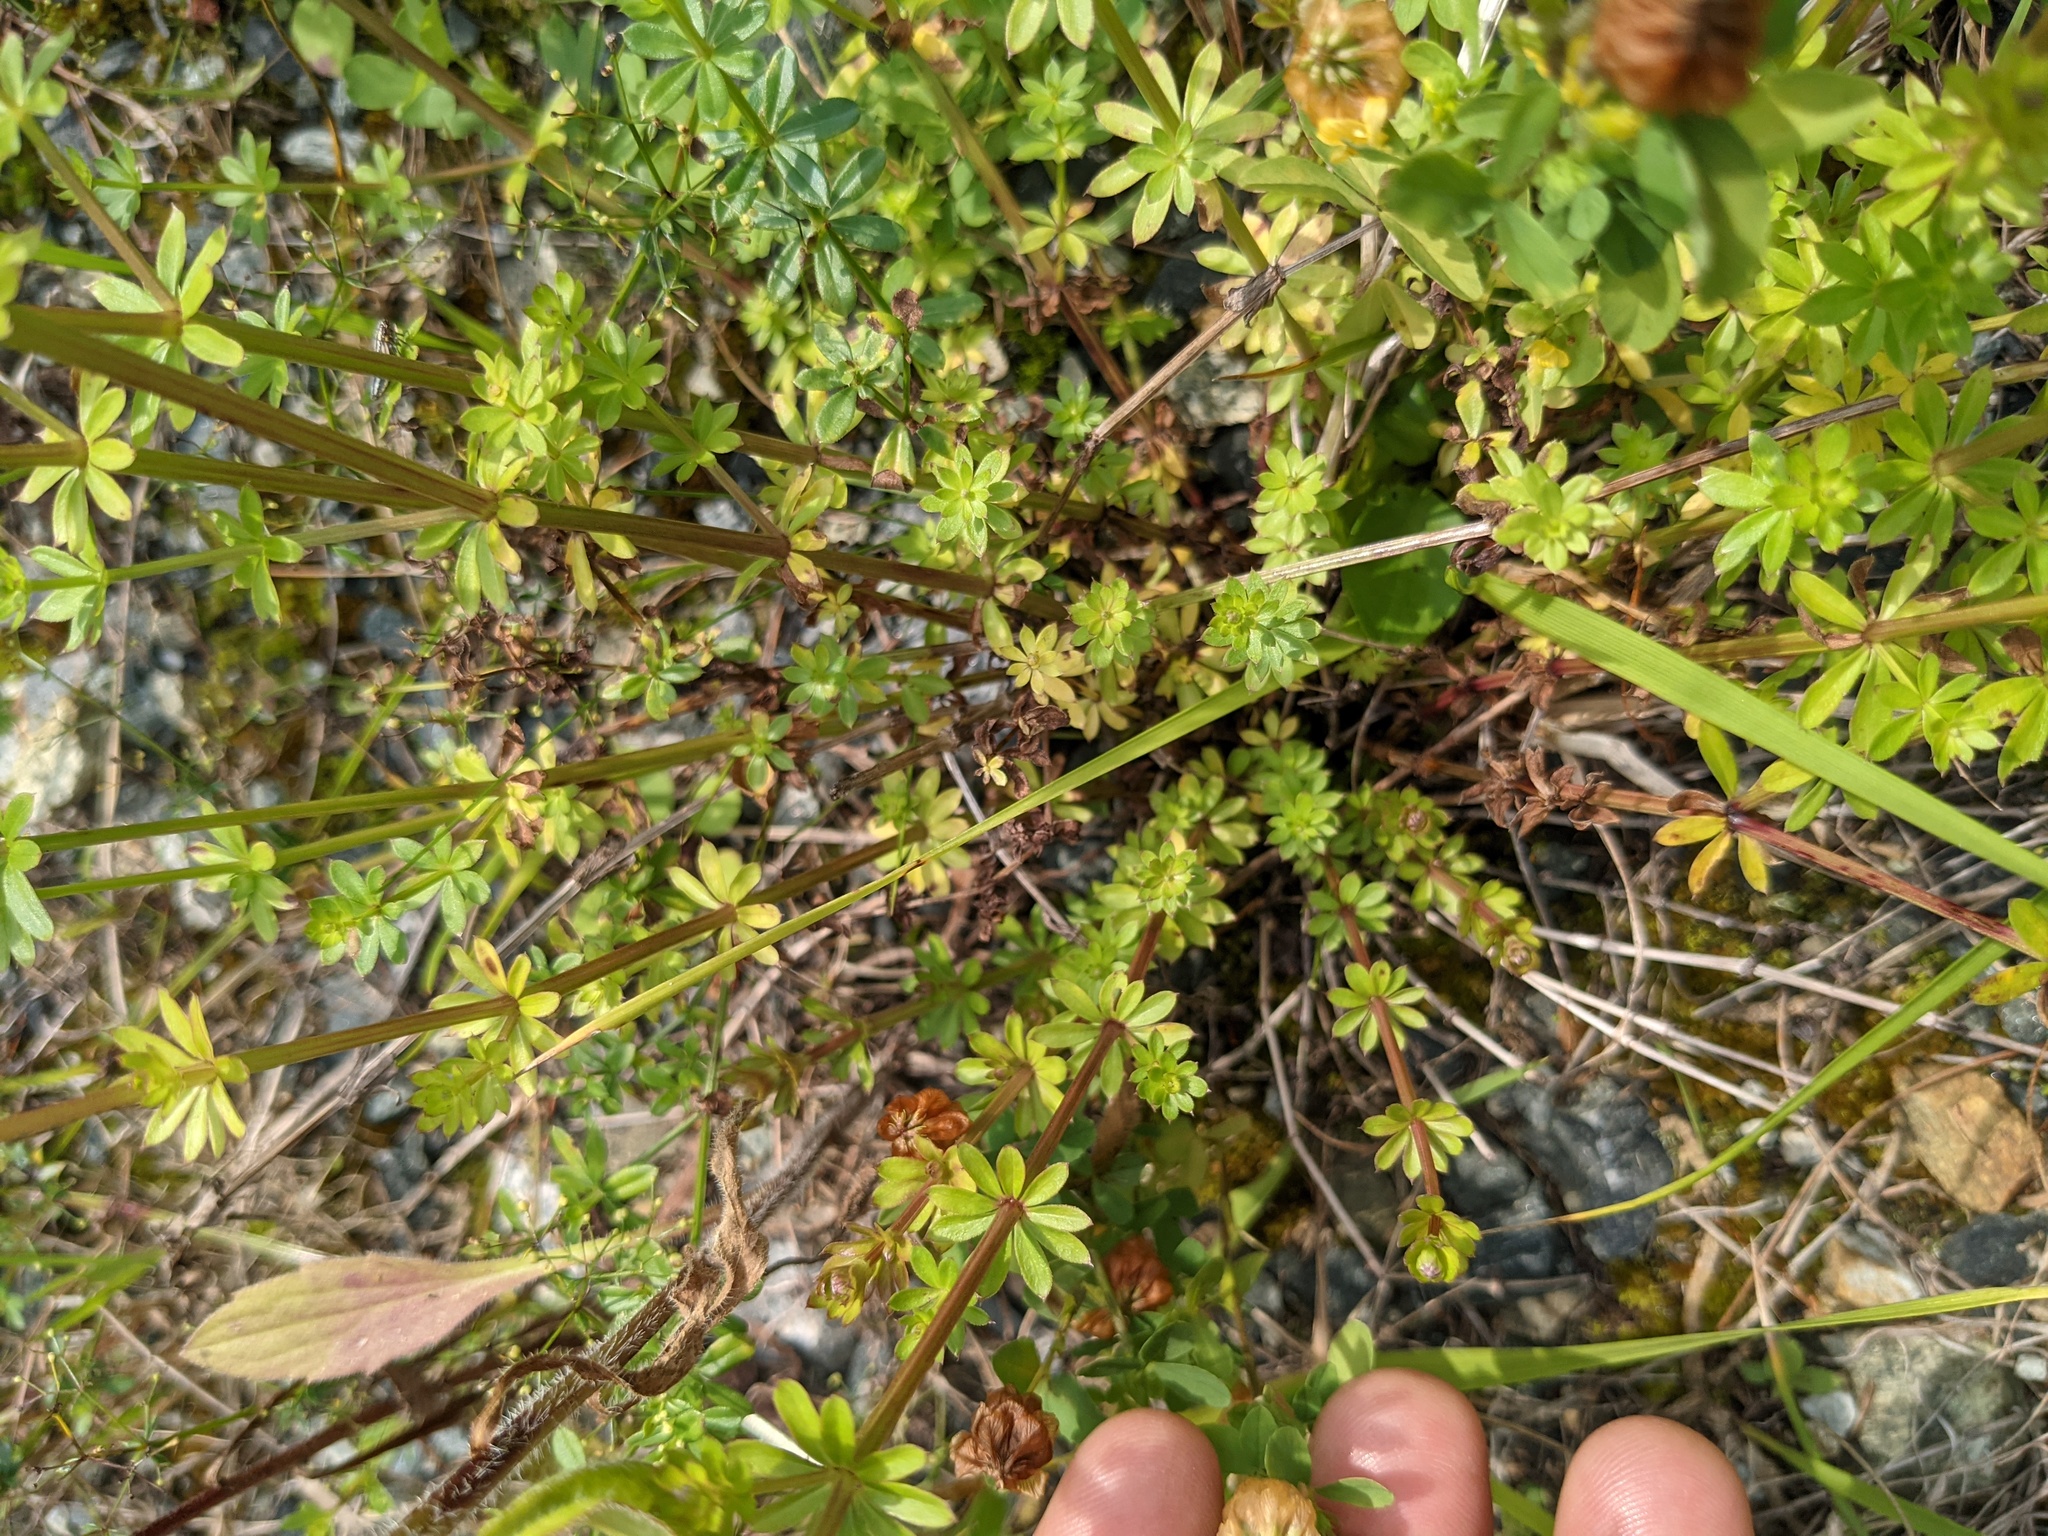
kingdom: Plantae
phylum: Tracheophyta
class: Magnoliopsida
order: Fabales
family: Fabaceae
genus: Trifolium
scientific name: Trifolium aureum
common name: Golden clover
